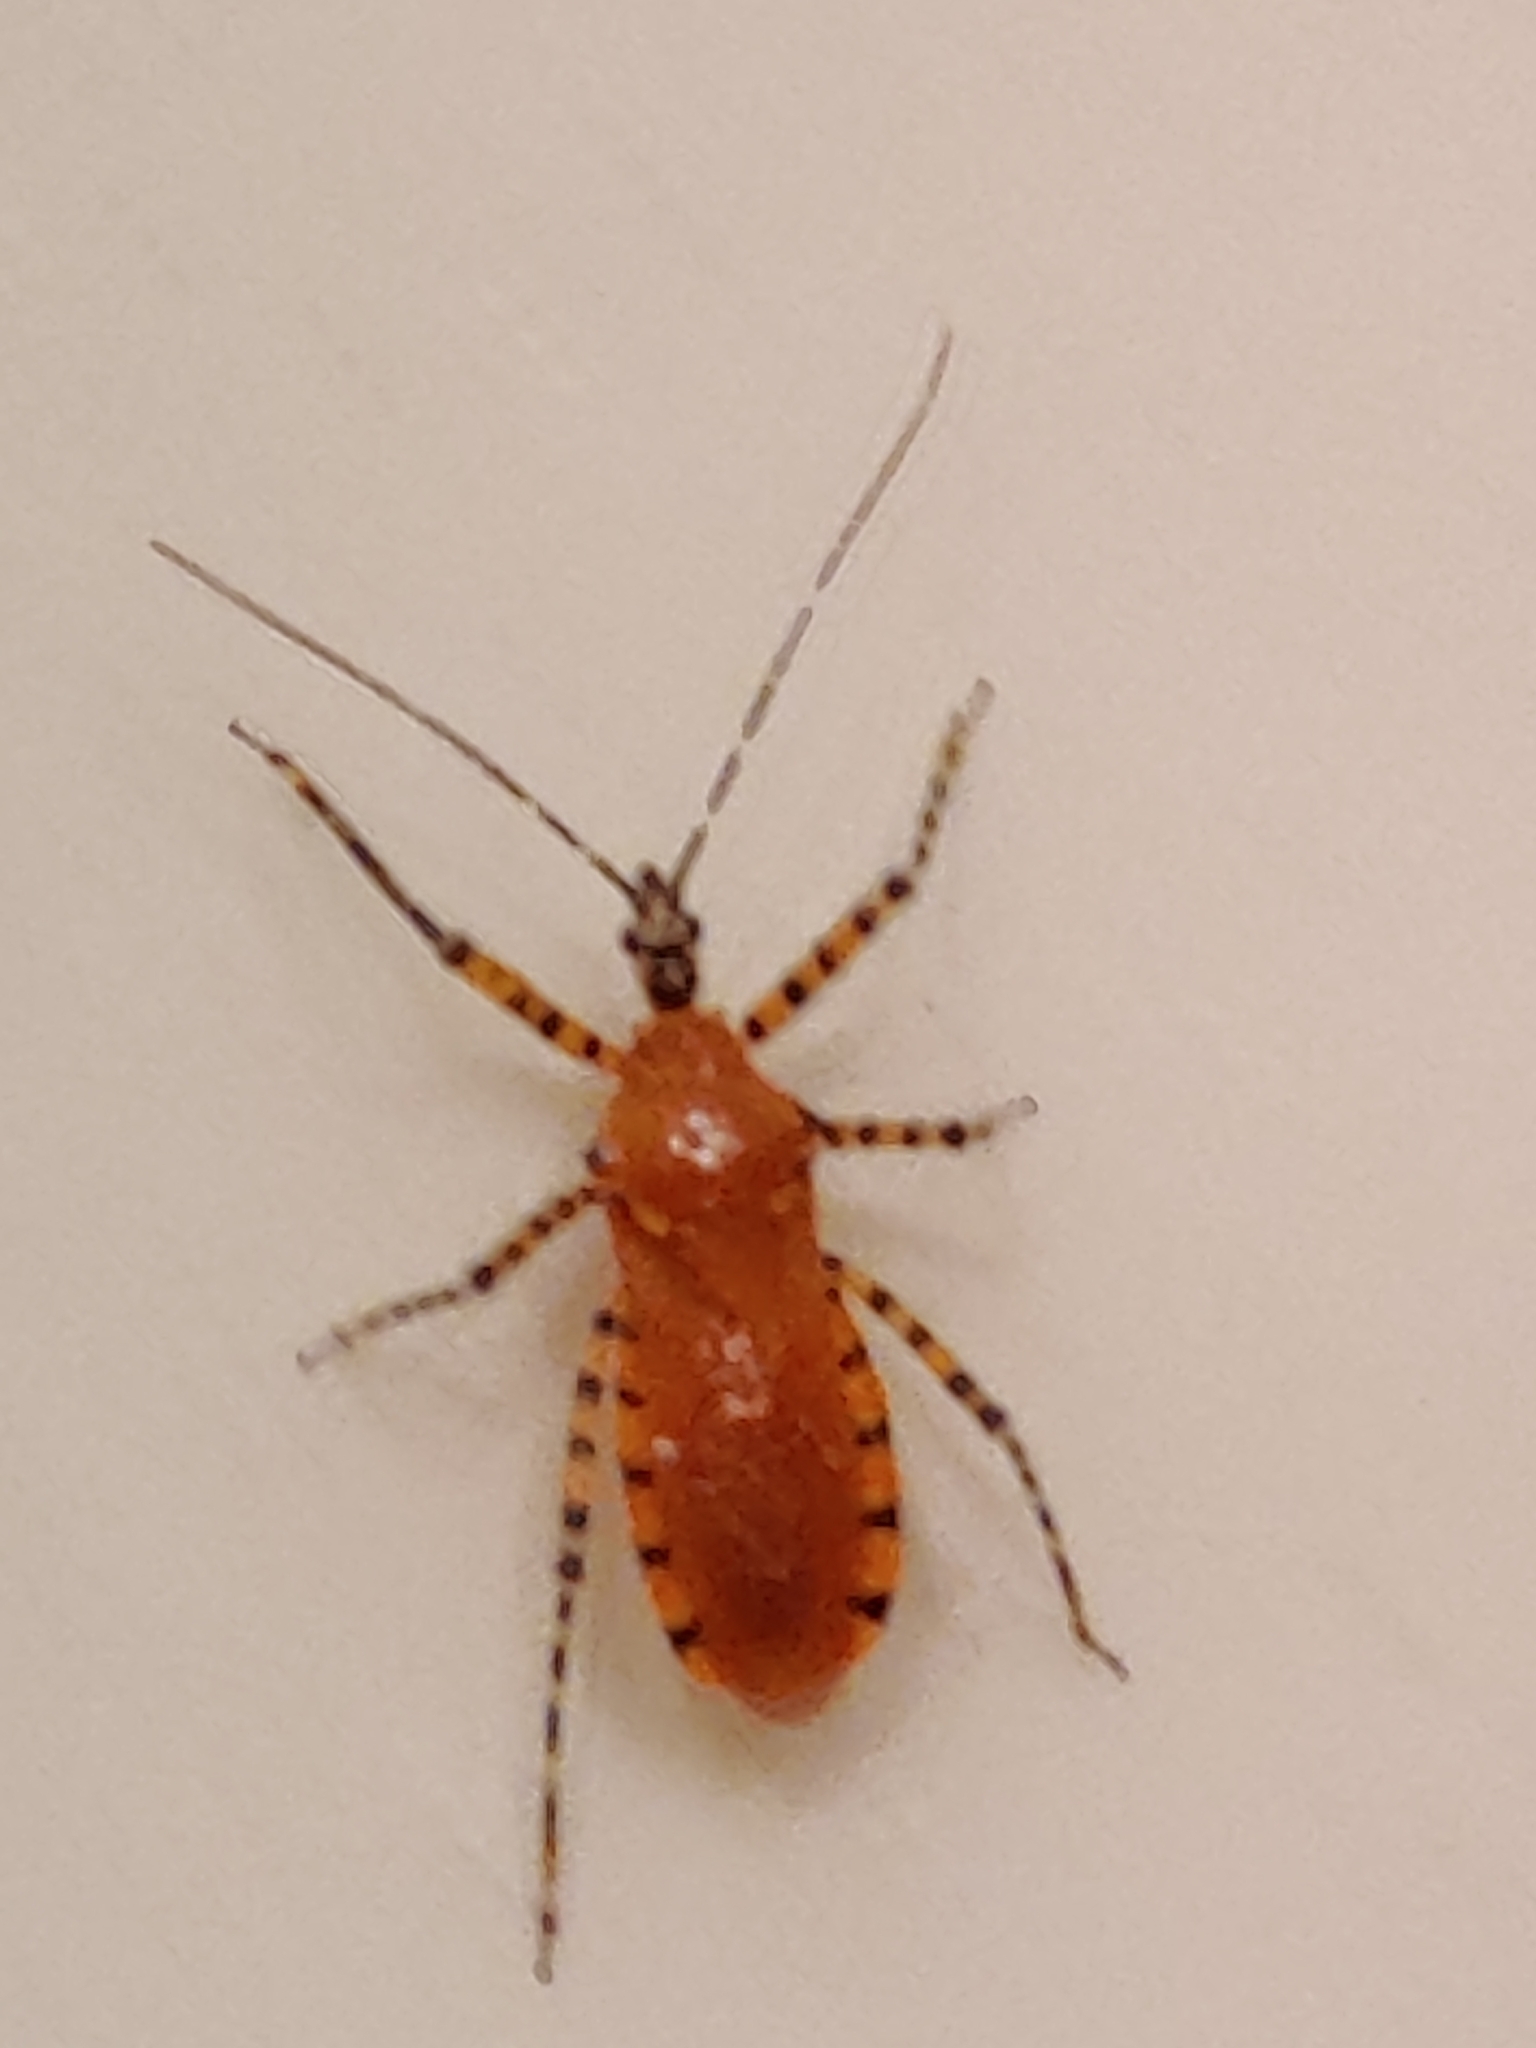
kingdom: Animalia
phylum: Arthropoda
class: Insecta
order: Hemiptera
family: Reduviidae
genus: Pselliopus
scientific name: Pselliopus barberi
